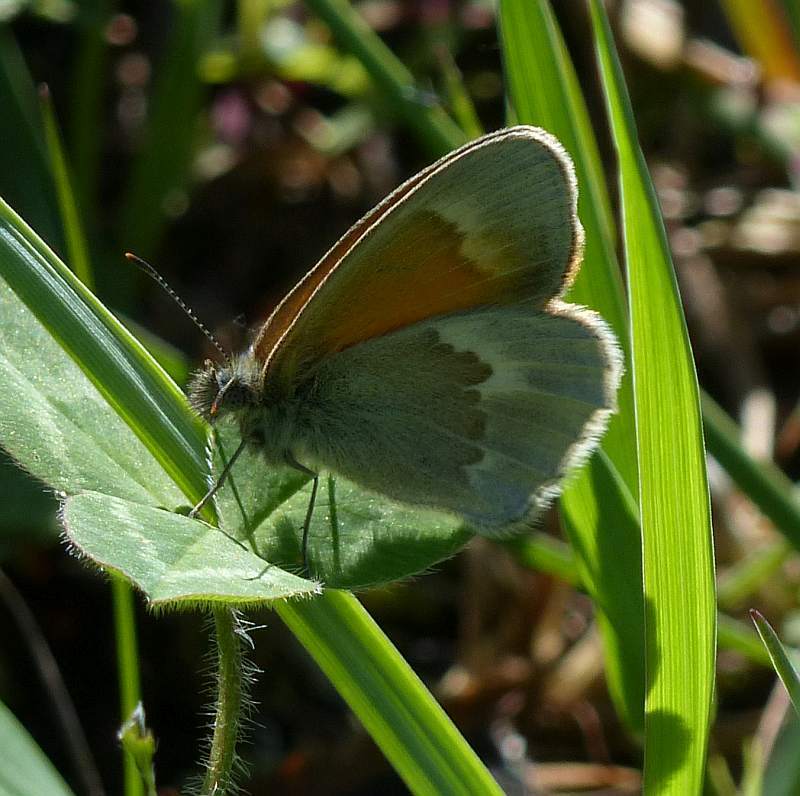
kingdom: Animalia
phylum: Arthropoda
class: Insecta
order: Lepidoptera
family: Nymphalidae
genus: Coenonympha
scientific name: Coenonympha california
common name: Common ringlet
